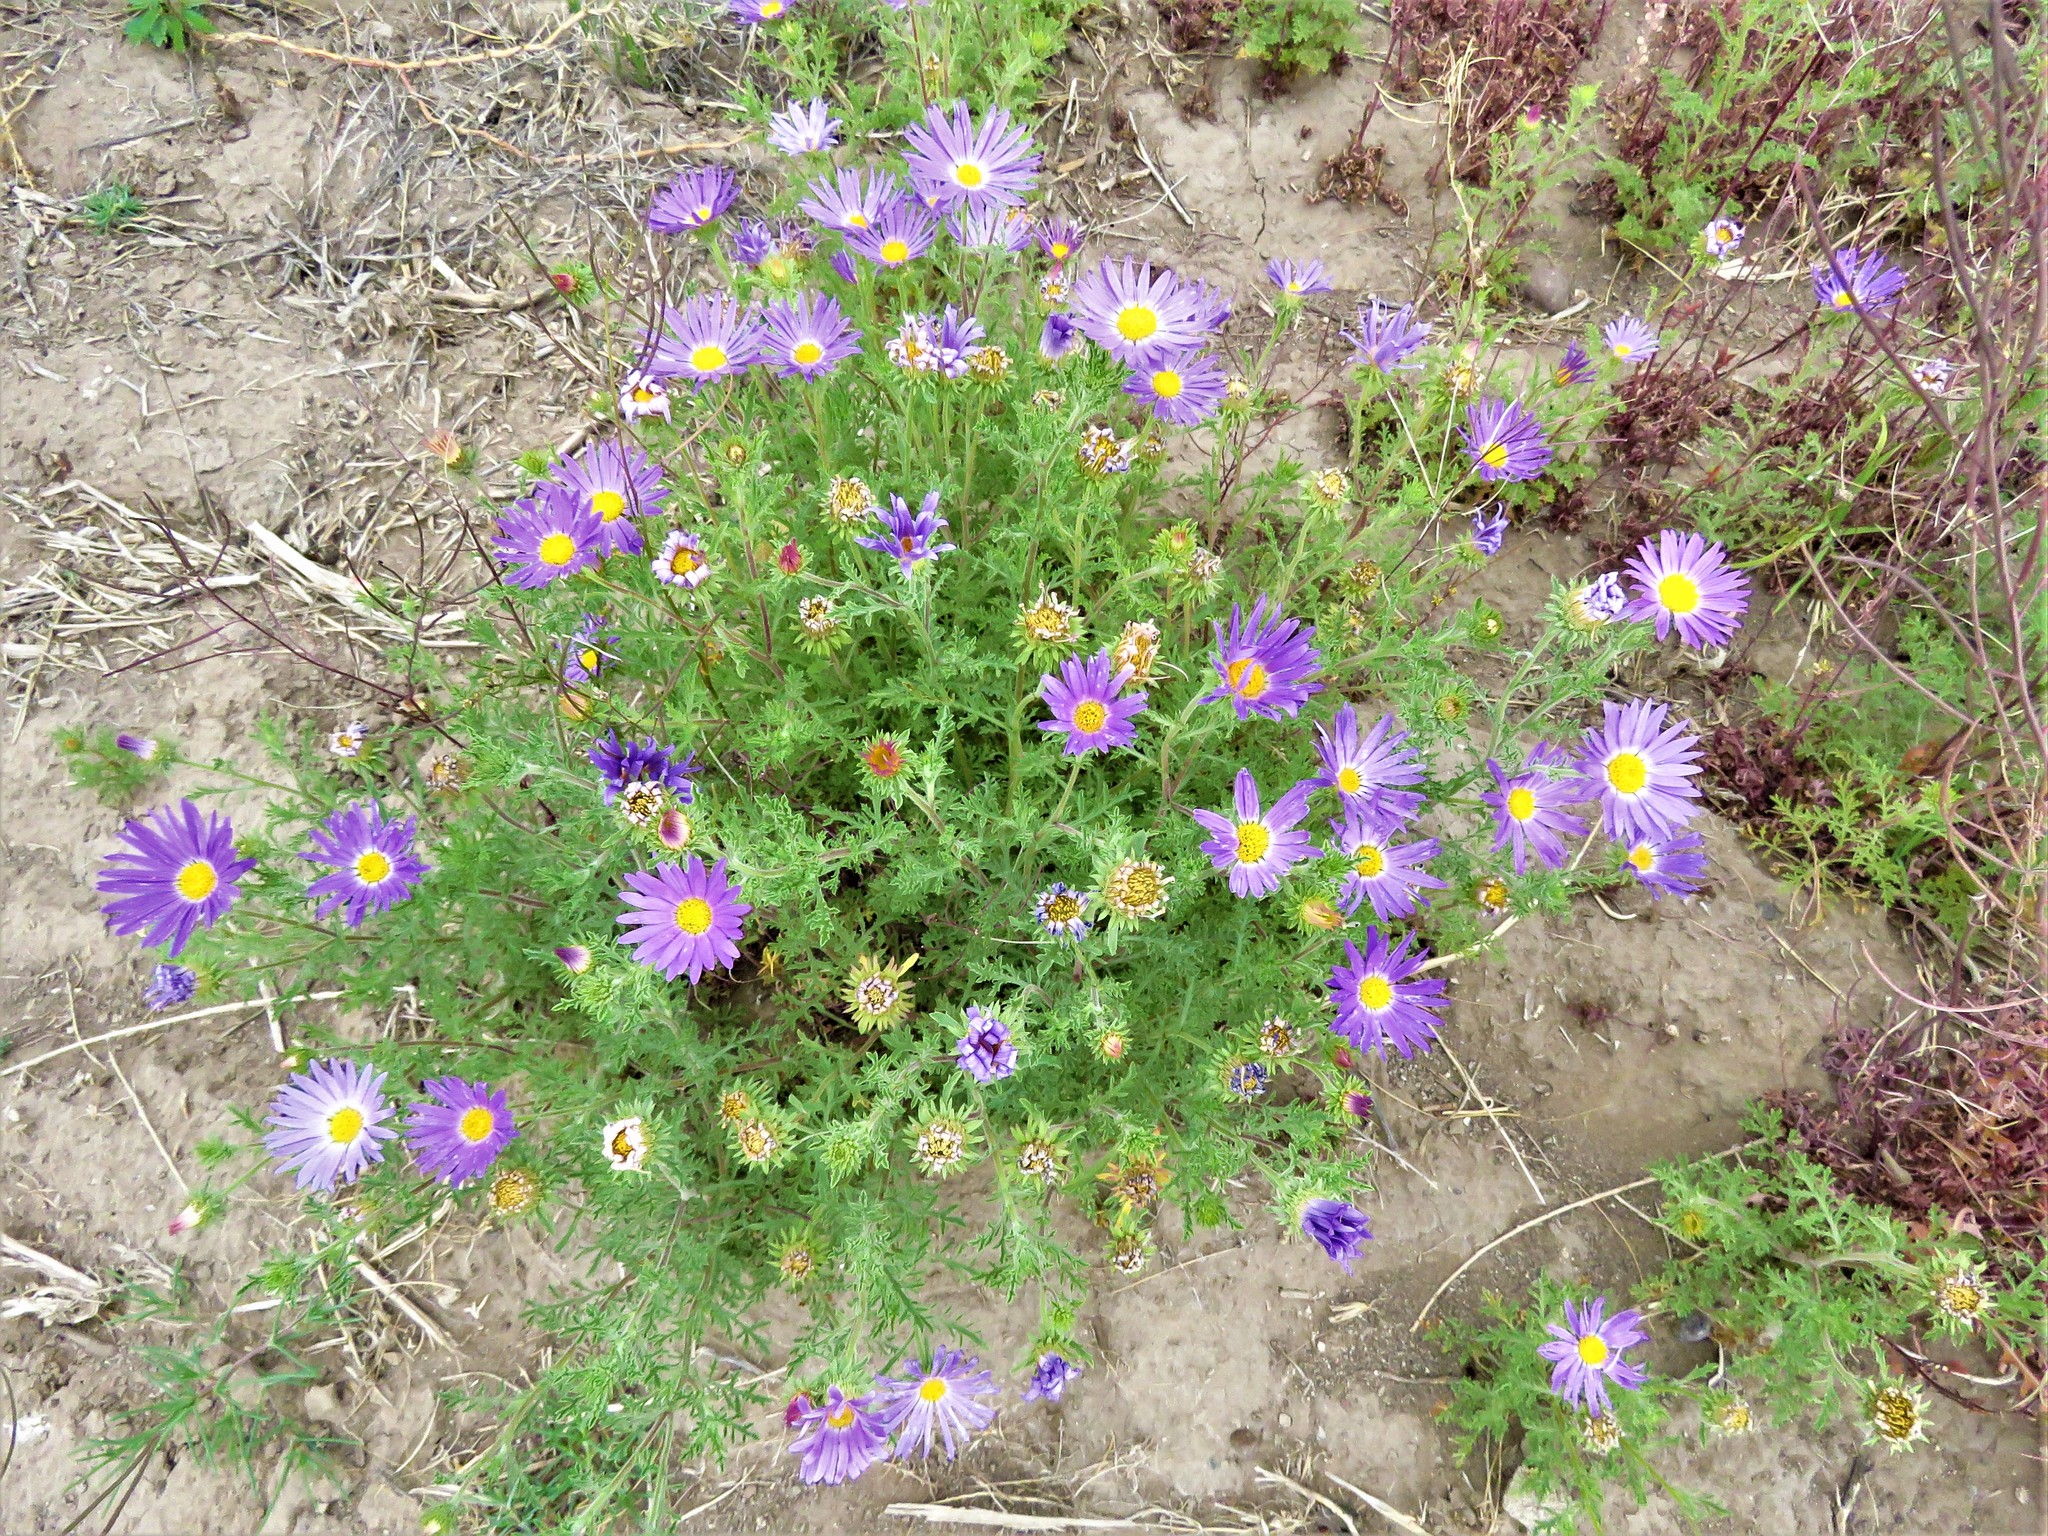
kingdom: Plantae
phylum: Tracheophyta
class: Magnoliopsida
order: Asterales
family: Asteraceae
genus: Machaeranthera
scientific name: Machaeranthera tanacetifolia
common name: Tansy-aster
